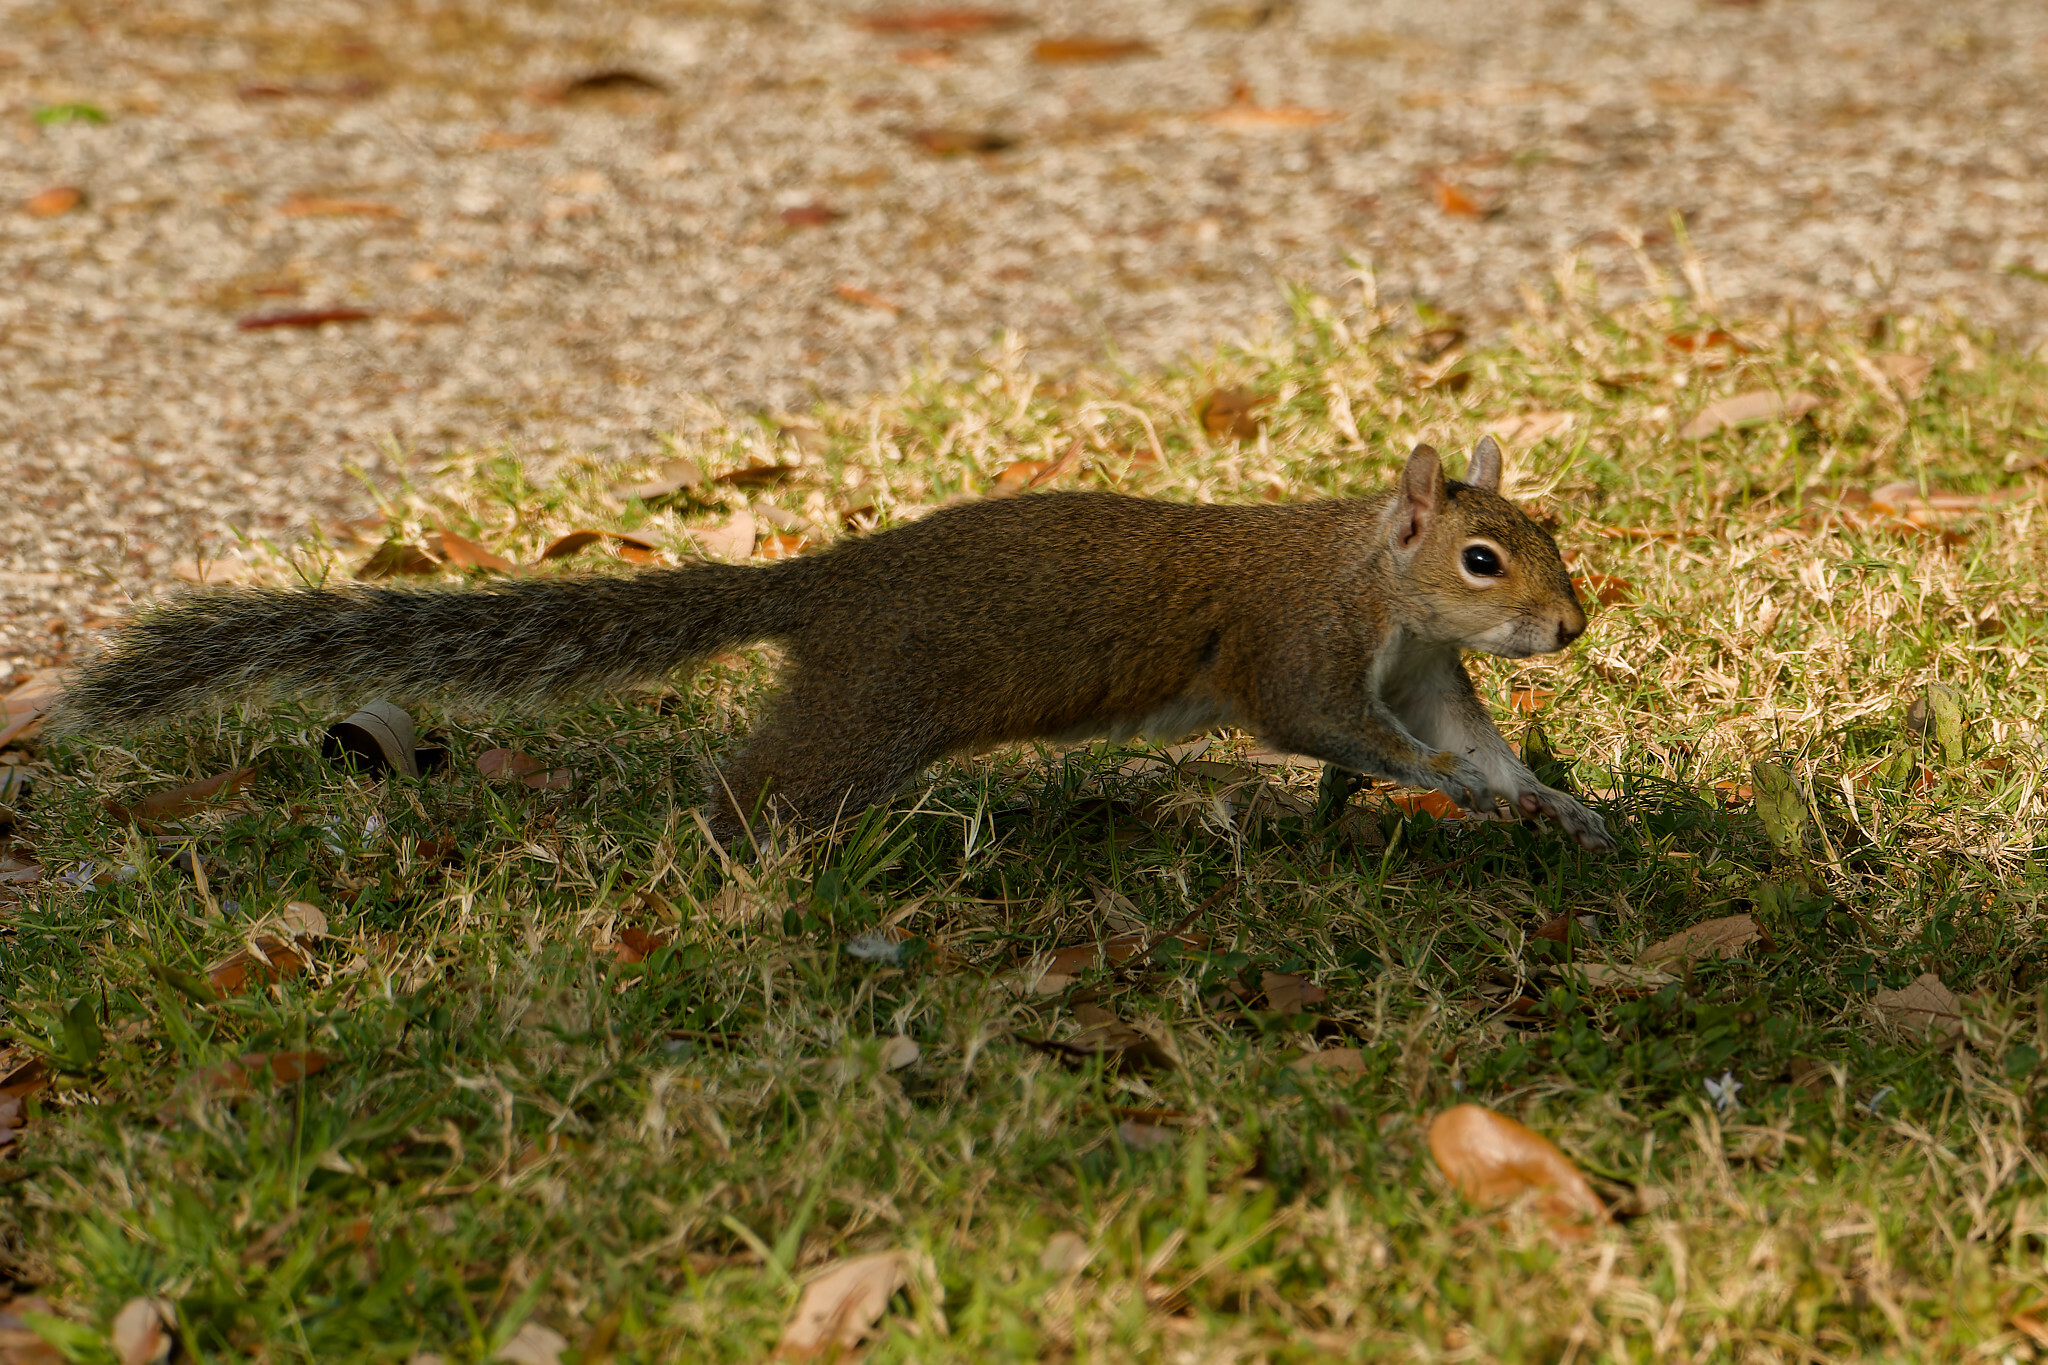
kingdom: Animalia
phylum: Chordata
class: Mammalia
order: Rodentia
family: Sciuridae
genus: Sciurus
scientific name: Sciurus carolinensis
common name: Eastern gray squirrel
